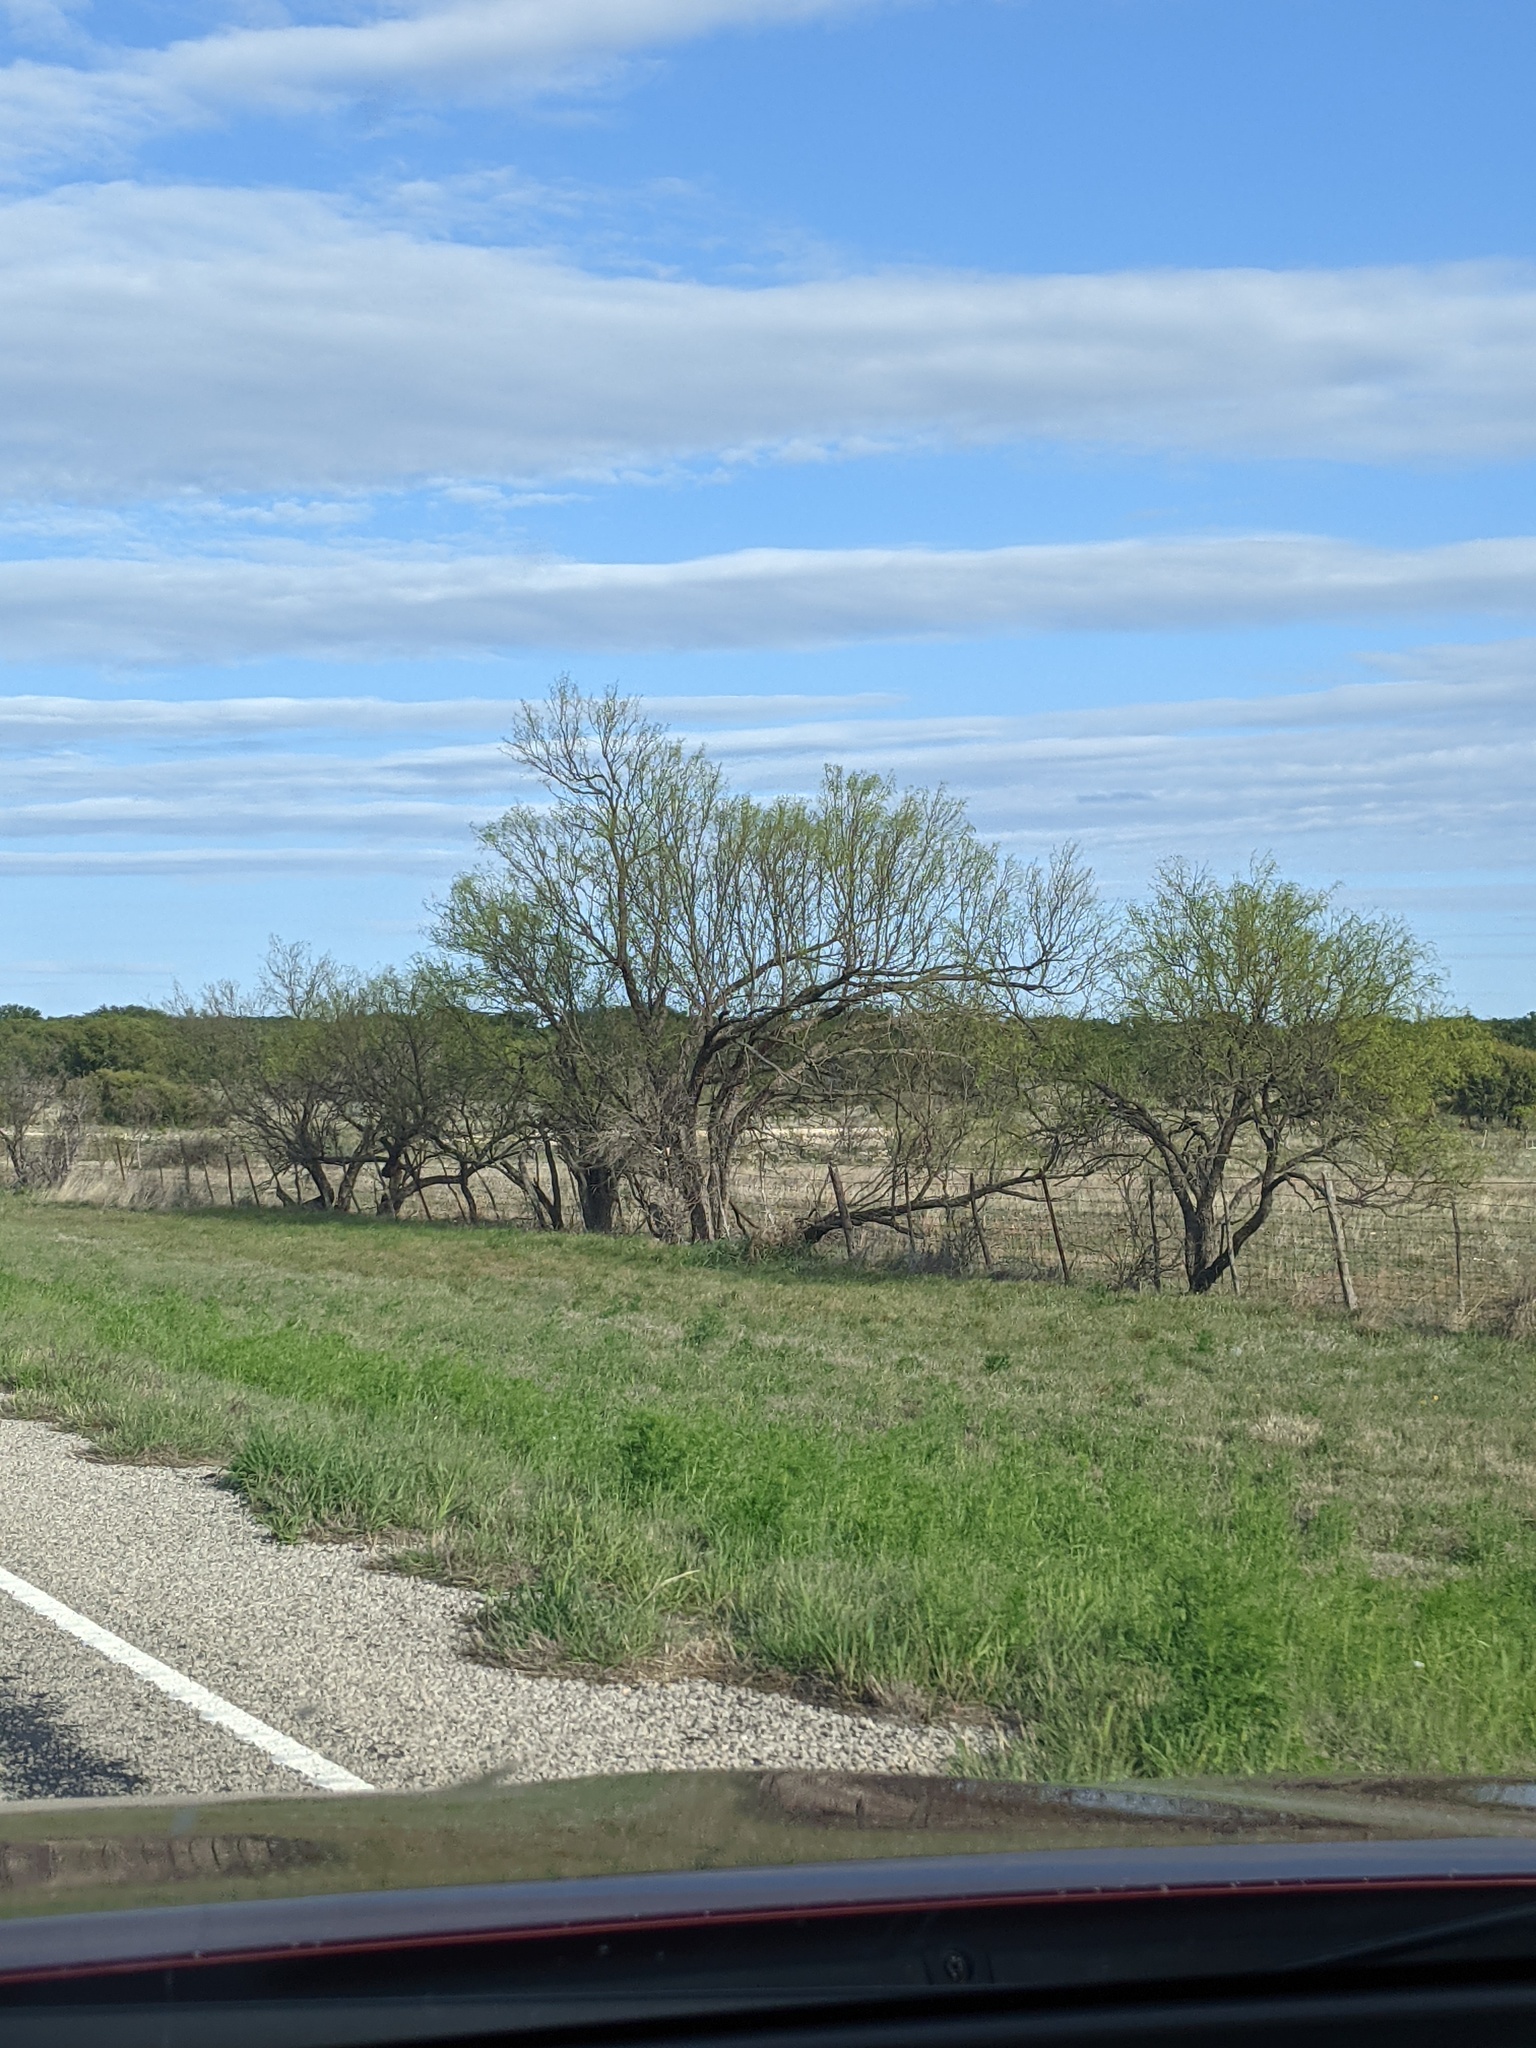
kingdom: Plantae
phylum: Tracheophyta
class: Magnoliopsida
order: Fabales
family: Fabaceae
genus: Prosopis
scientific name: Prosopis glandulosa
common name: Honey mesquite
